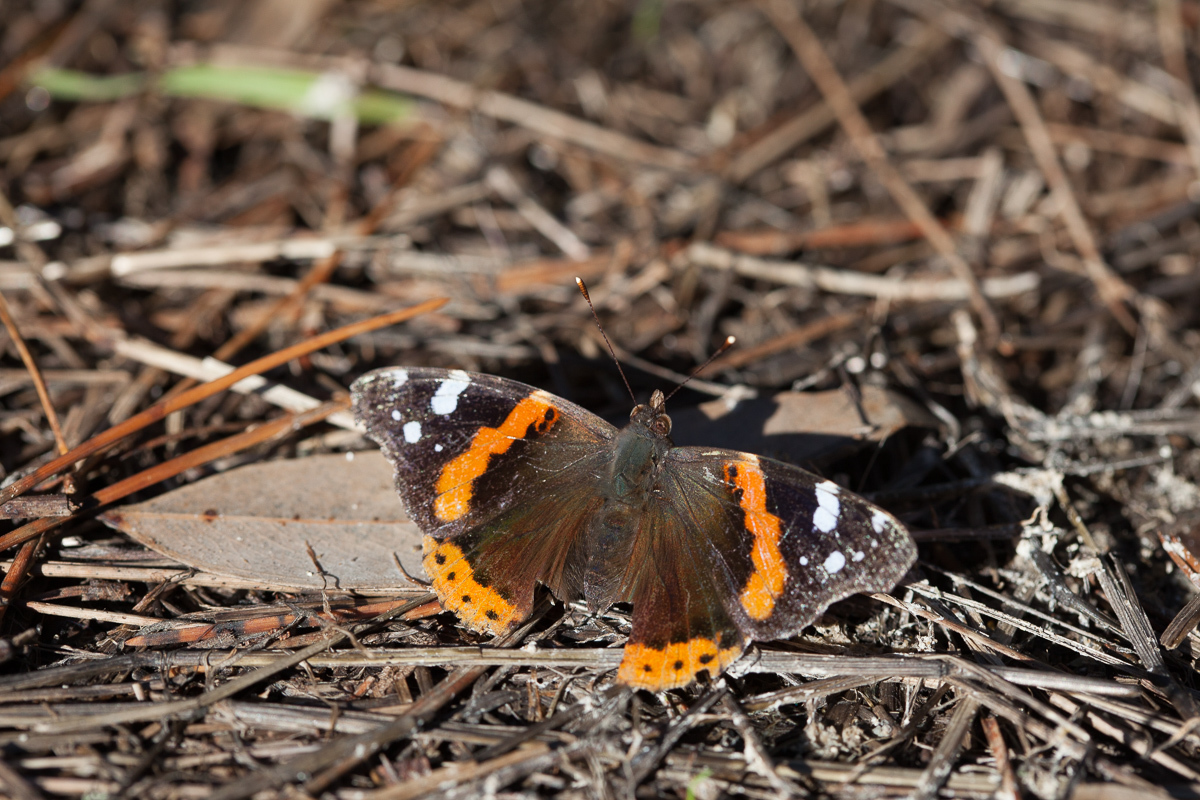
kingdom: Animalia
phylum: Arthropoda
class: Insecta
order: Lepidoptera
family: Nymphalidae
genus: Vanessa
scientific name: Vanessa atalanta
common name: Red admiral
